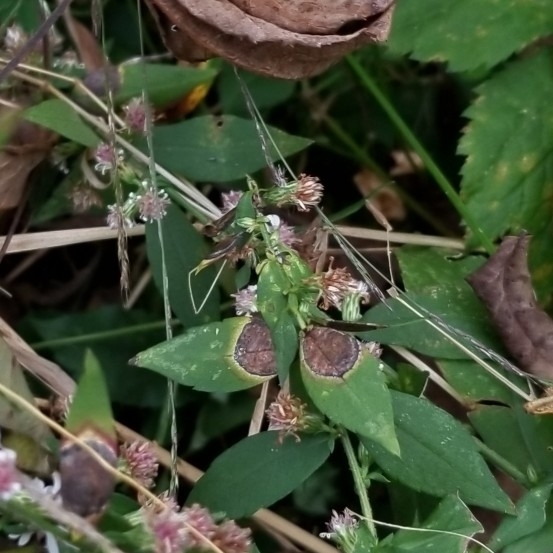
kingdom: Animalia
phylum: Arthropoda
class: Insecta
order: Diptera
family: Cecidomyiidae
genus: Asteromyia
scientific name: Asteromyia laeviana
